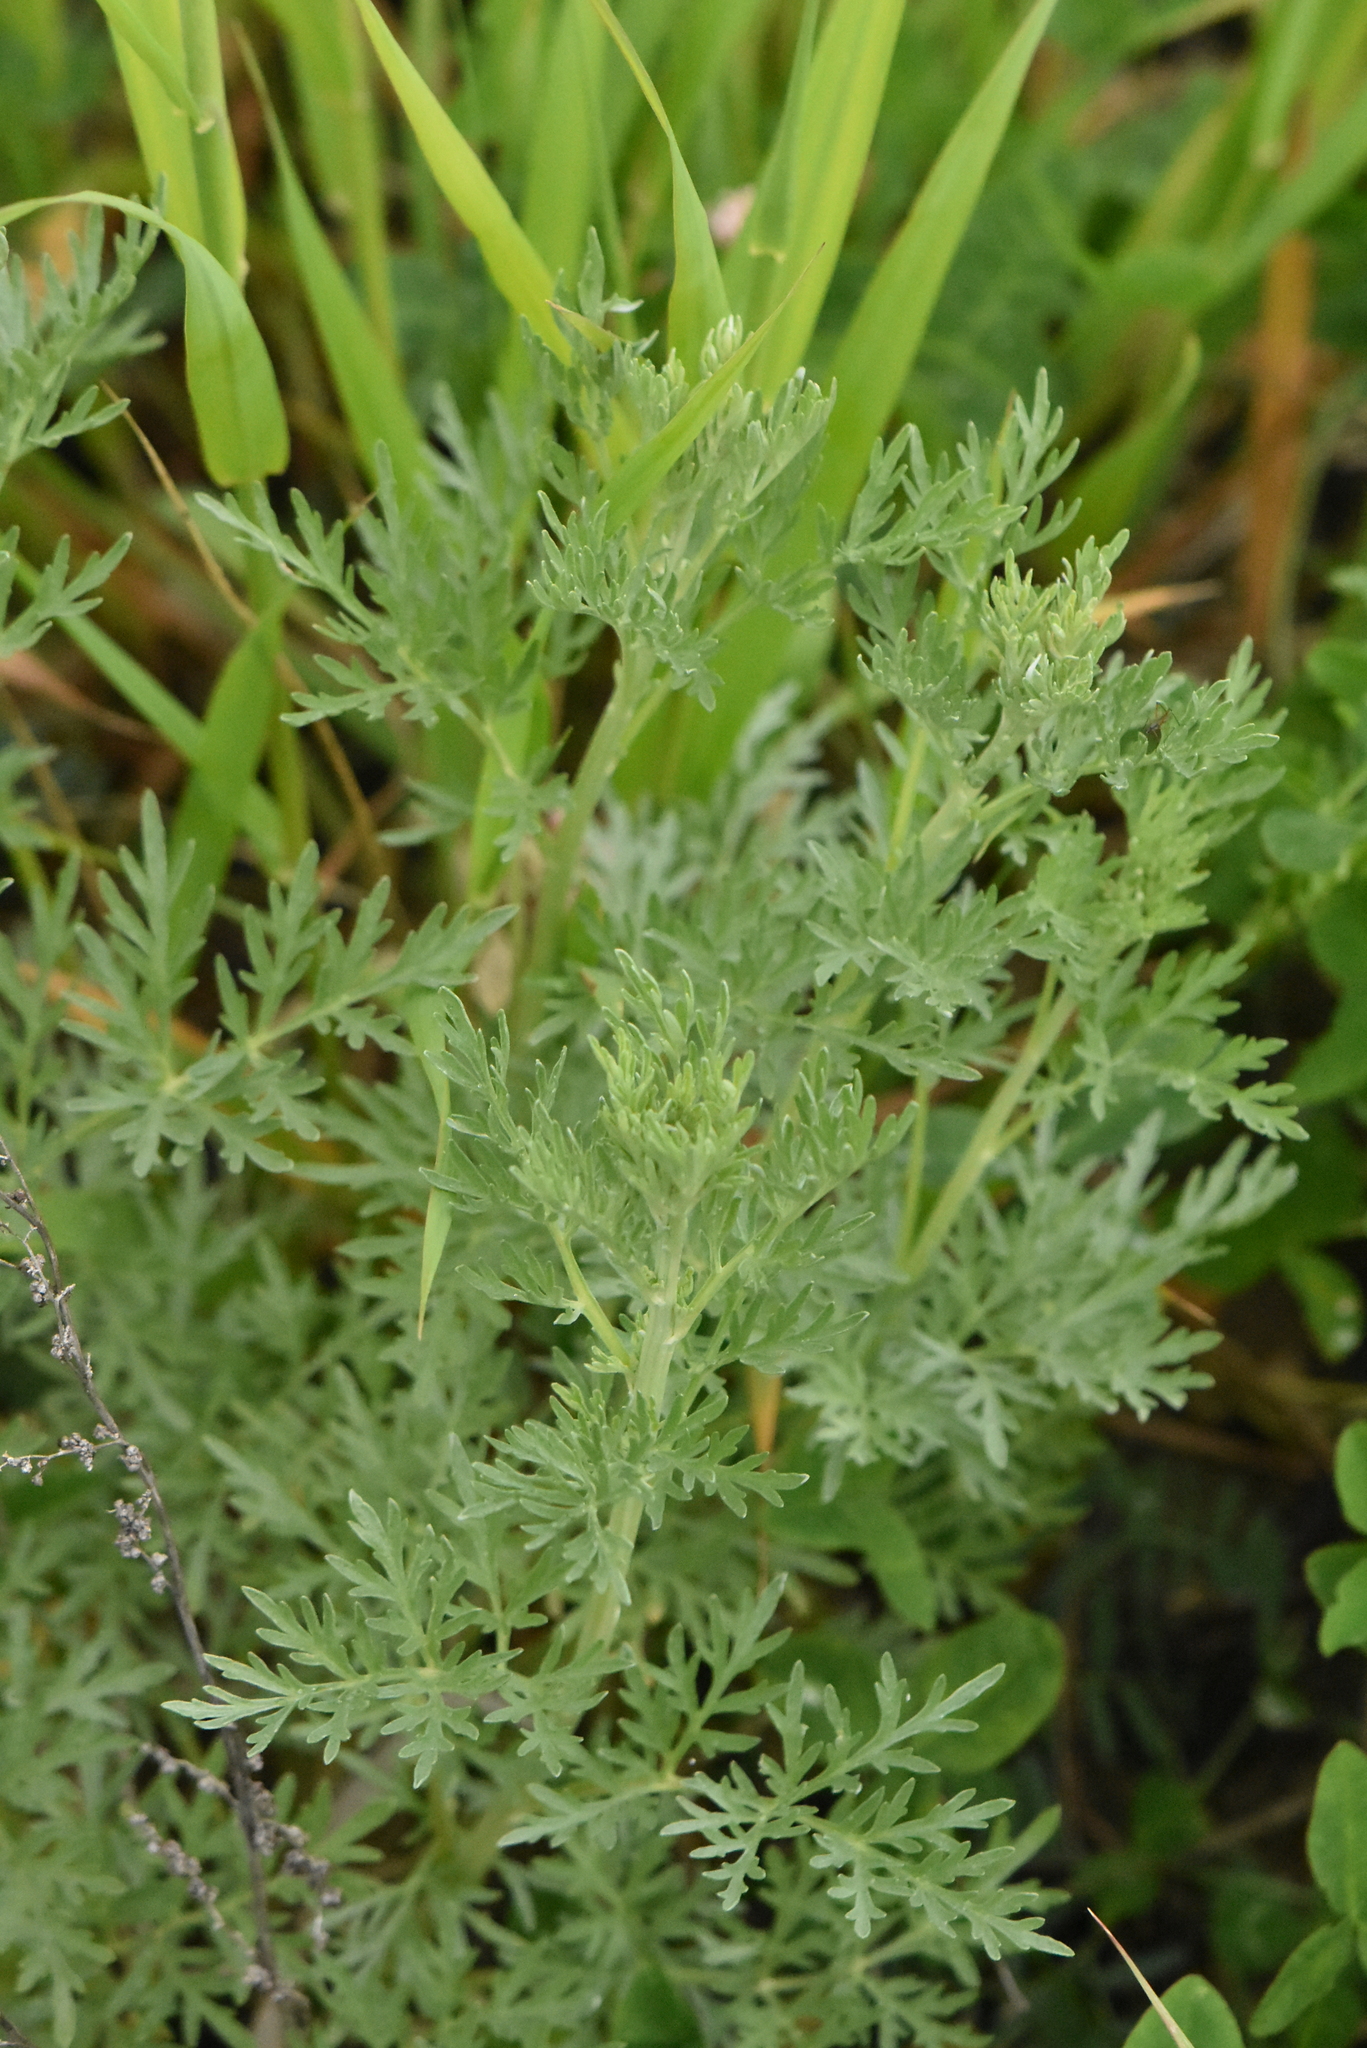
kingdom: Plantae
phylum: Tracheophyta
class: Magnoliopsida
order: Asterales
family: Asteraceae
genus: Artemisia
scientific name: Artemisia absinthium
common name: Wormwood
